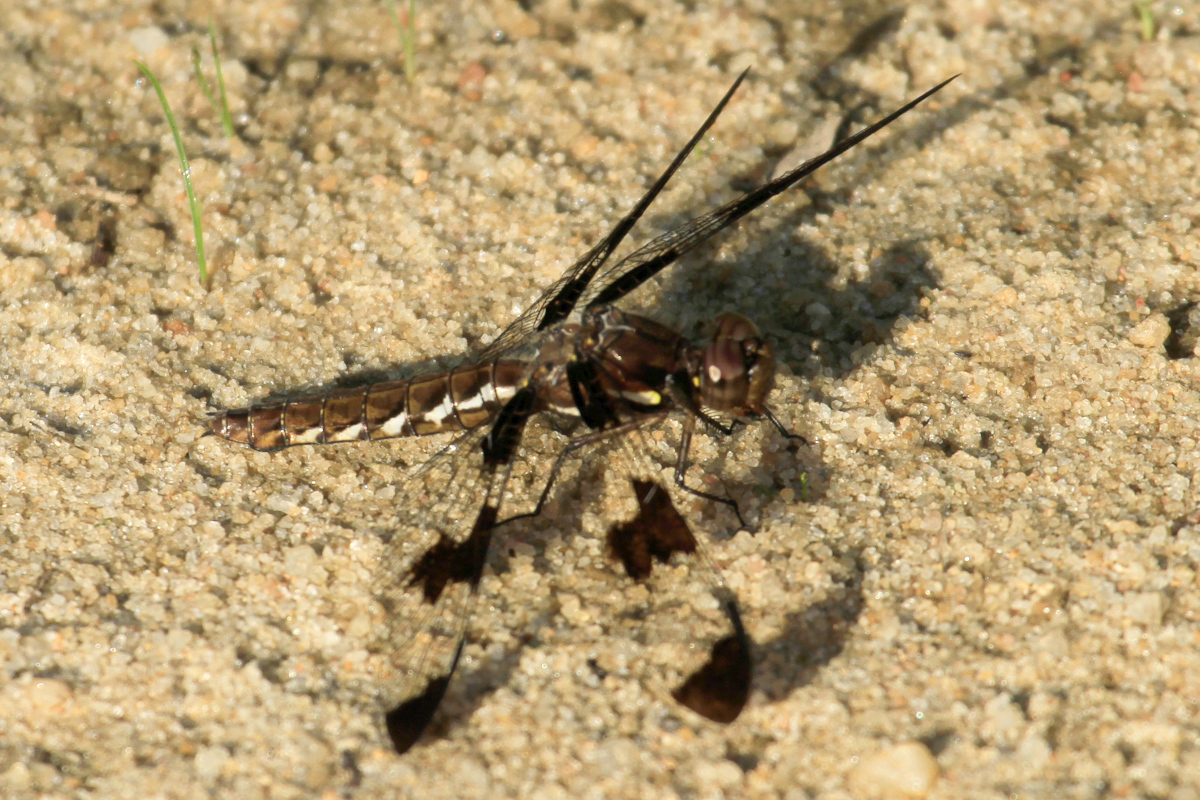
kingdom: Animalia
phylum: Arthropoda
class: Insecta
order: Odonata
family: Libellulidae
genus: Plathemis
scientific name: Plathemis lydia
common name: Common whitetail
